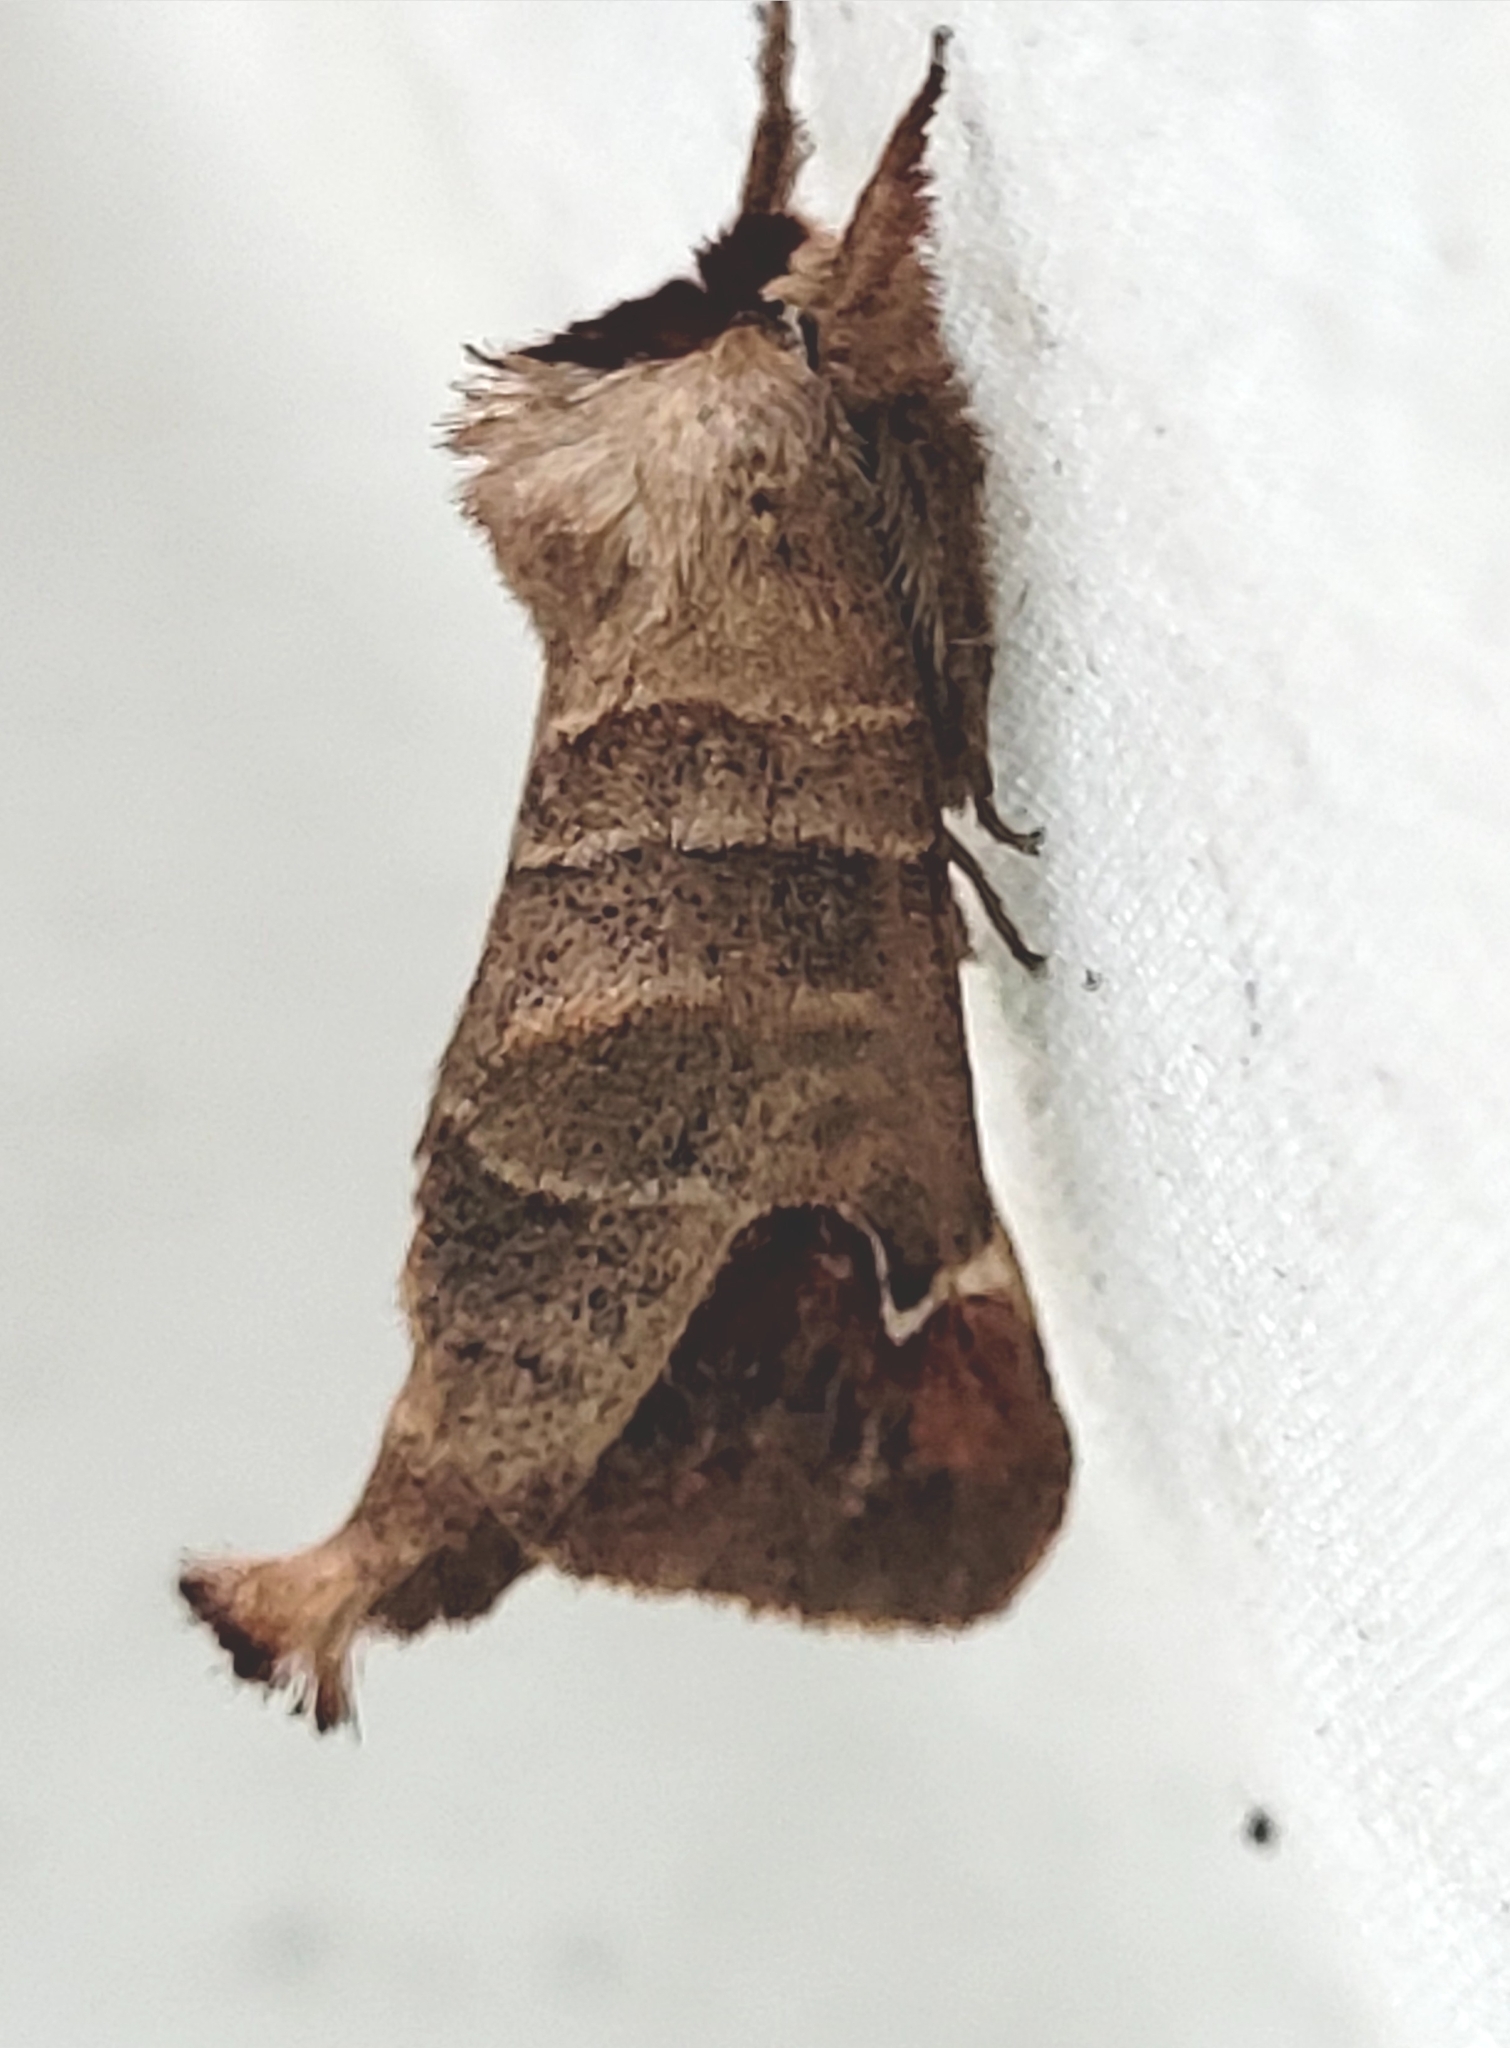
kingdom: Animalia
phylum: Arthropoda
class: Insecta
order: Lepidoptera
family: Notodontidae
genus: Clostera
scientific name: Clostera albosigma
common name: Sigmoid prominent
